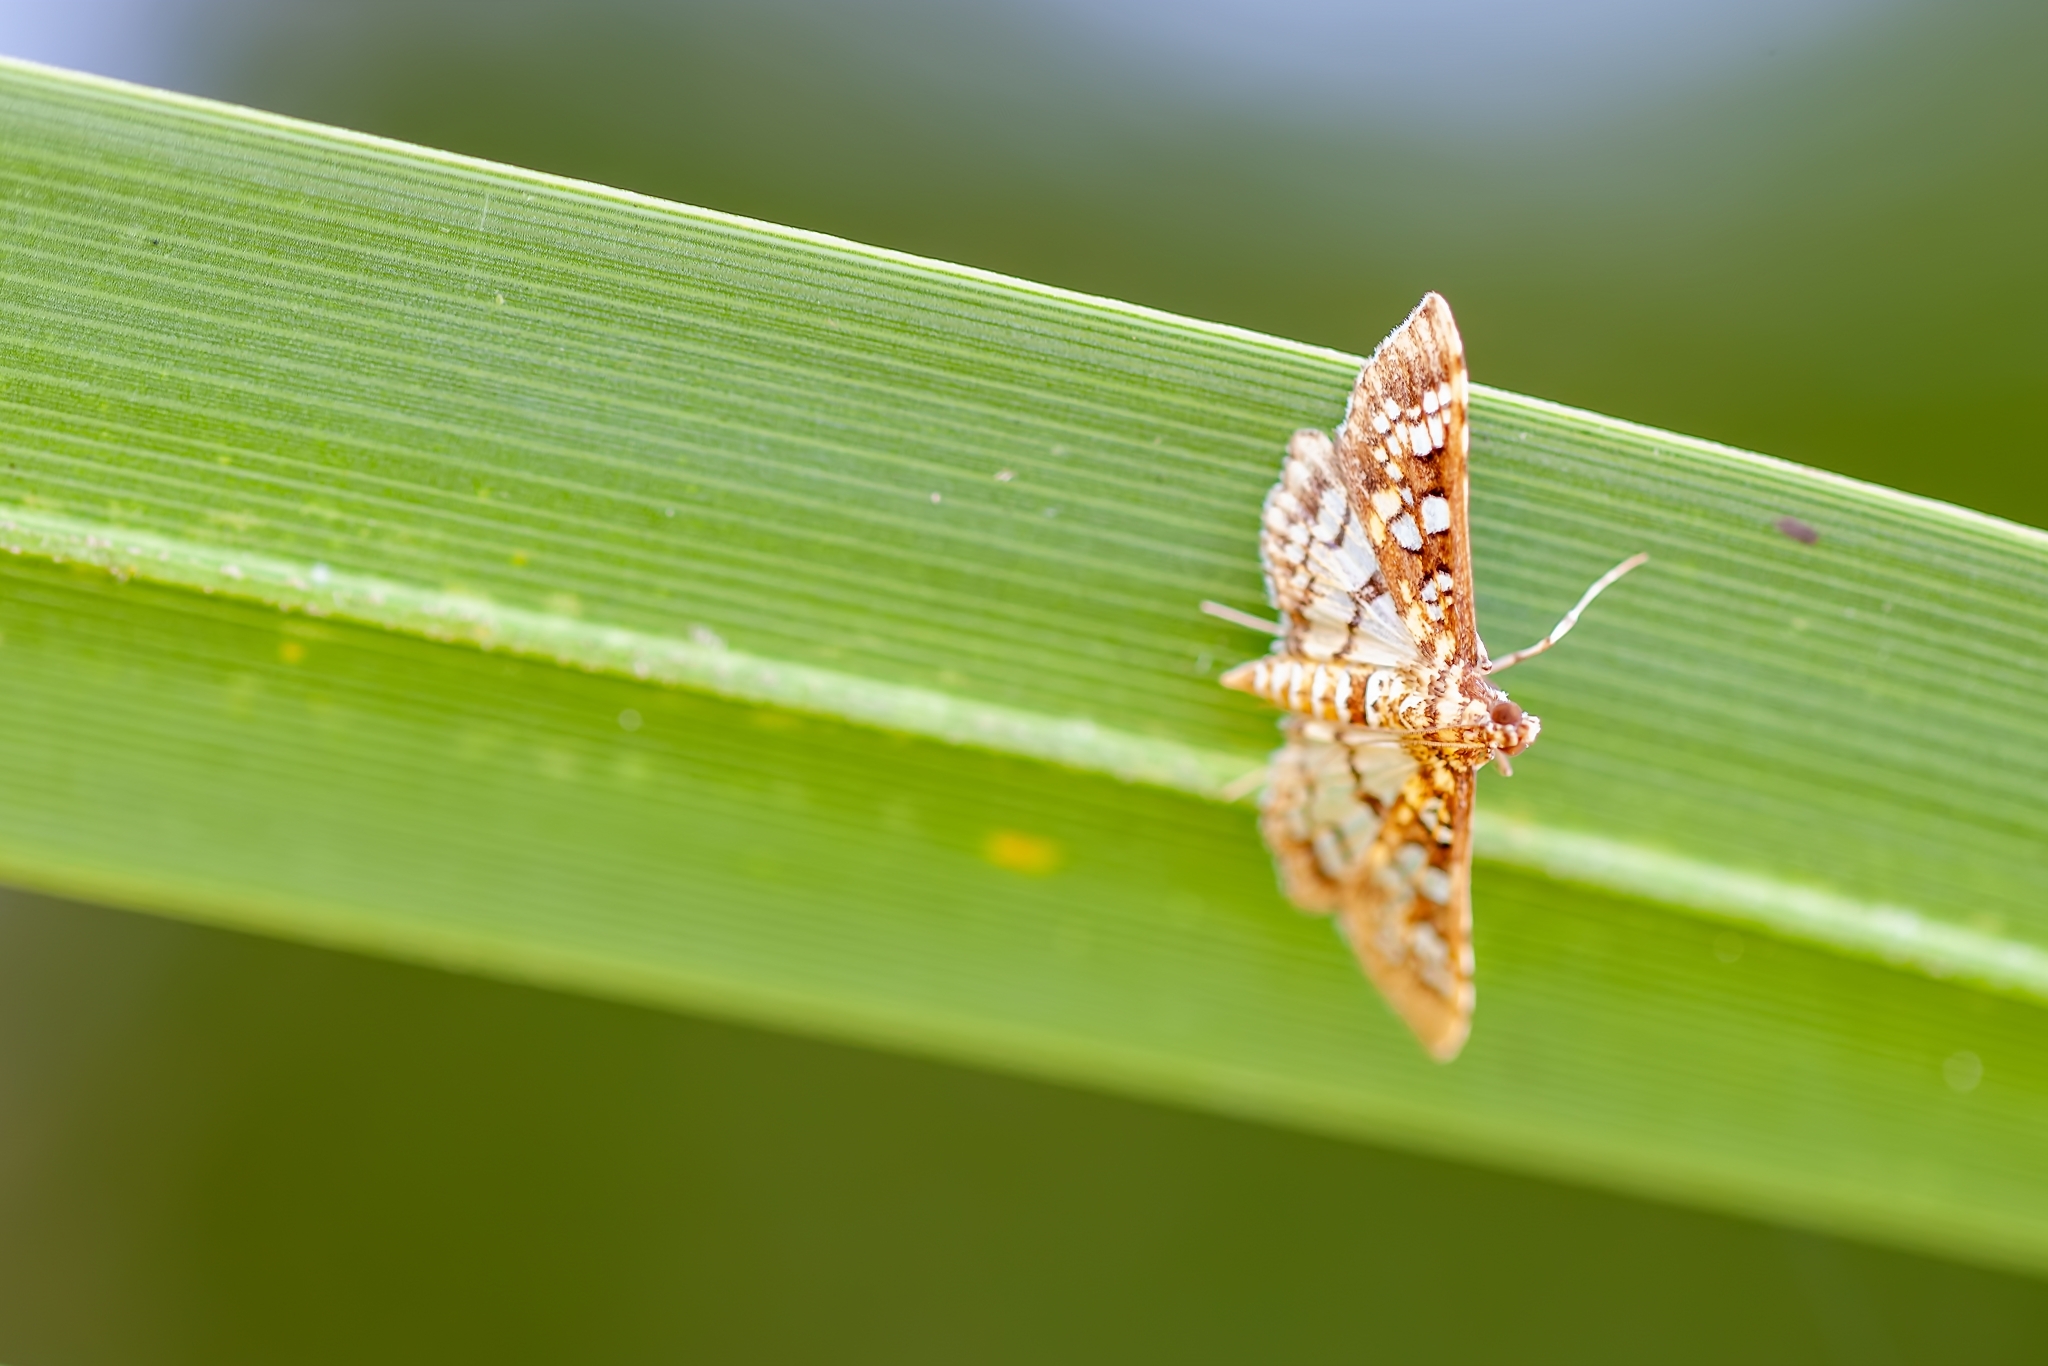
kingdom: Animalia
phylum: Arthropoda
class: Insecta
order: Lepidoptera
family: Crambidae
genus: Samea
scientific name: Samea ecclesialis
